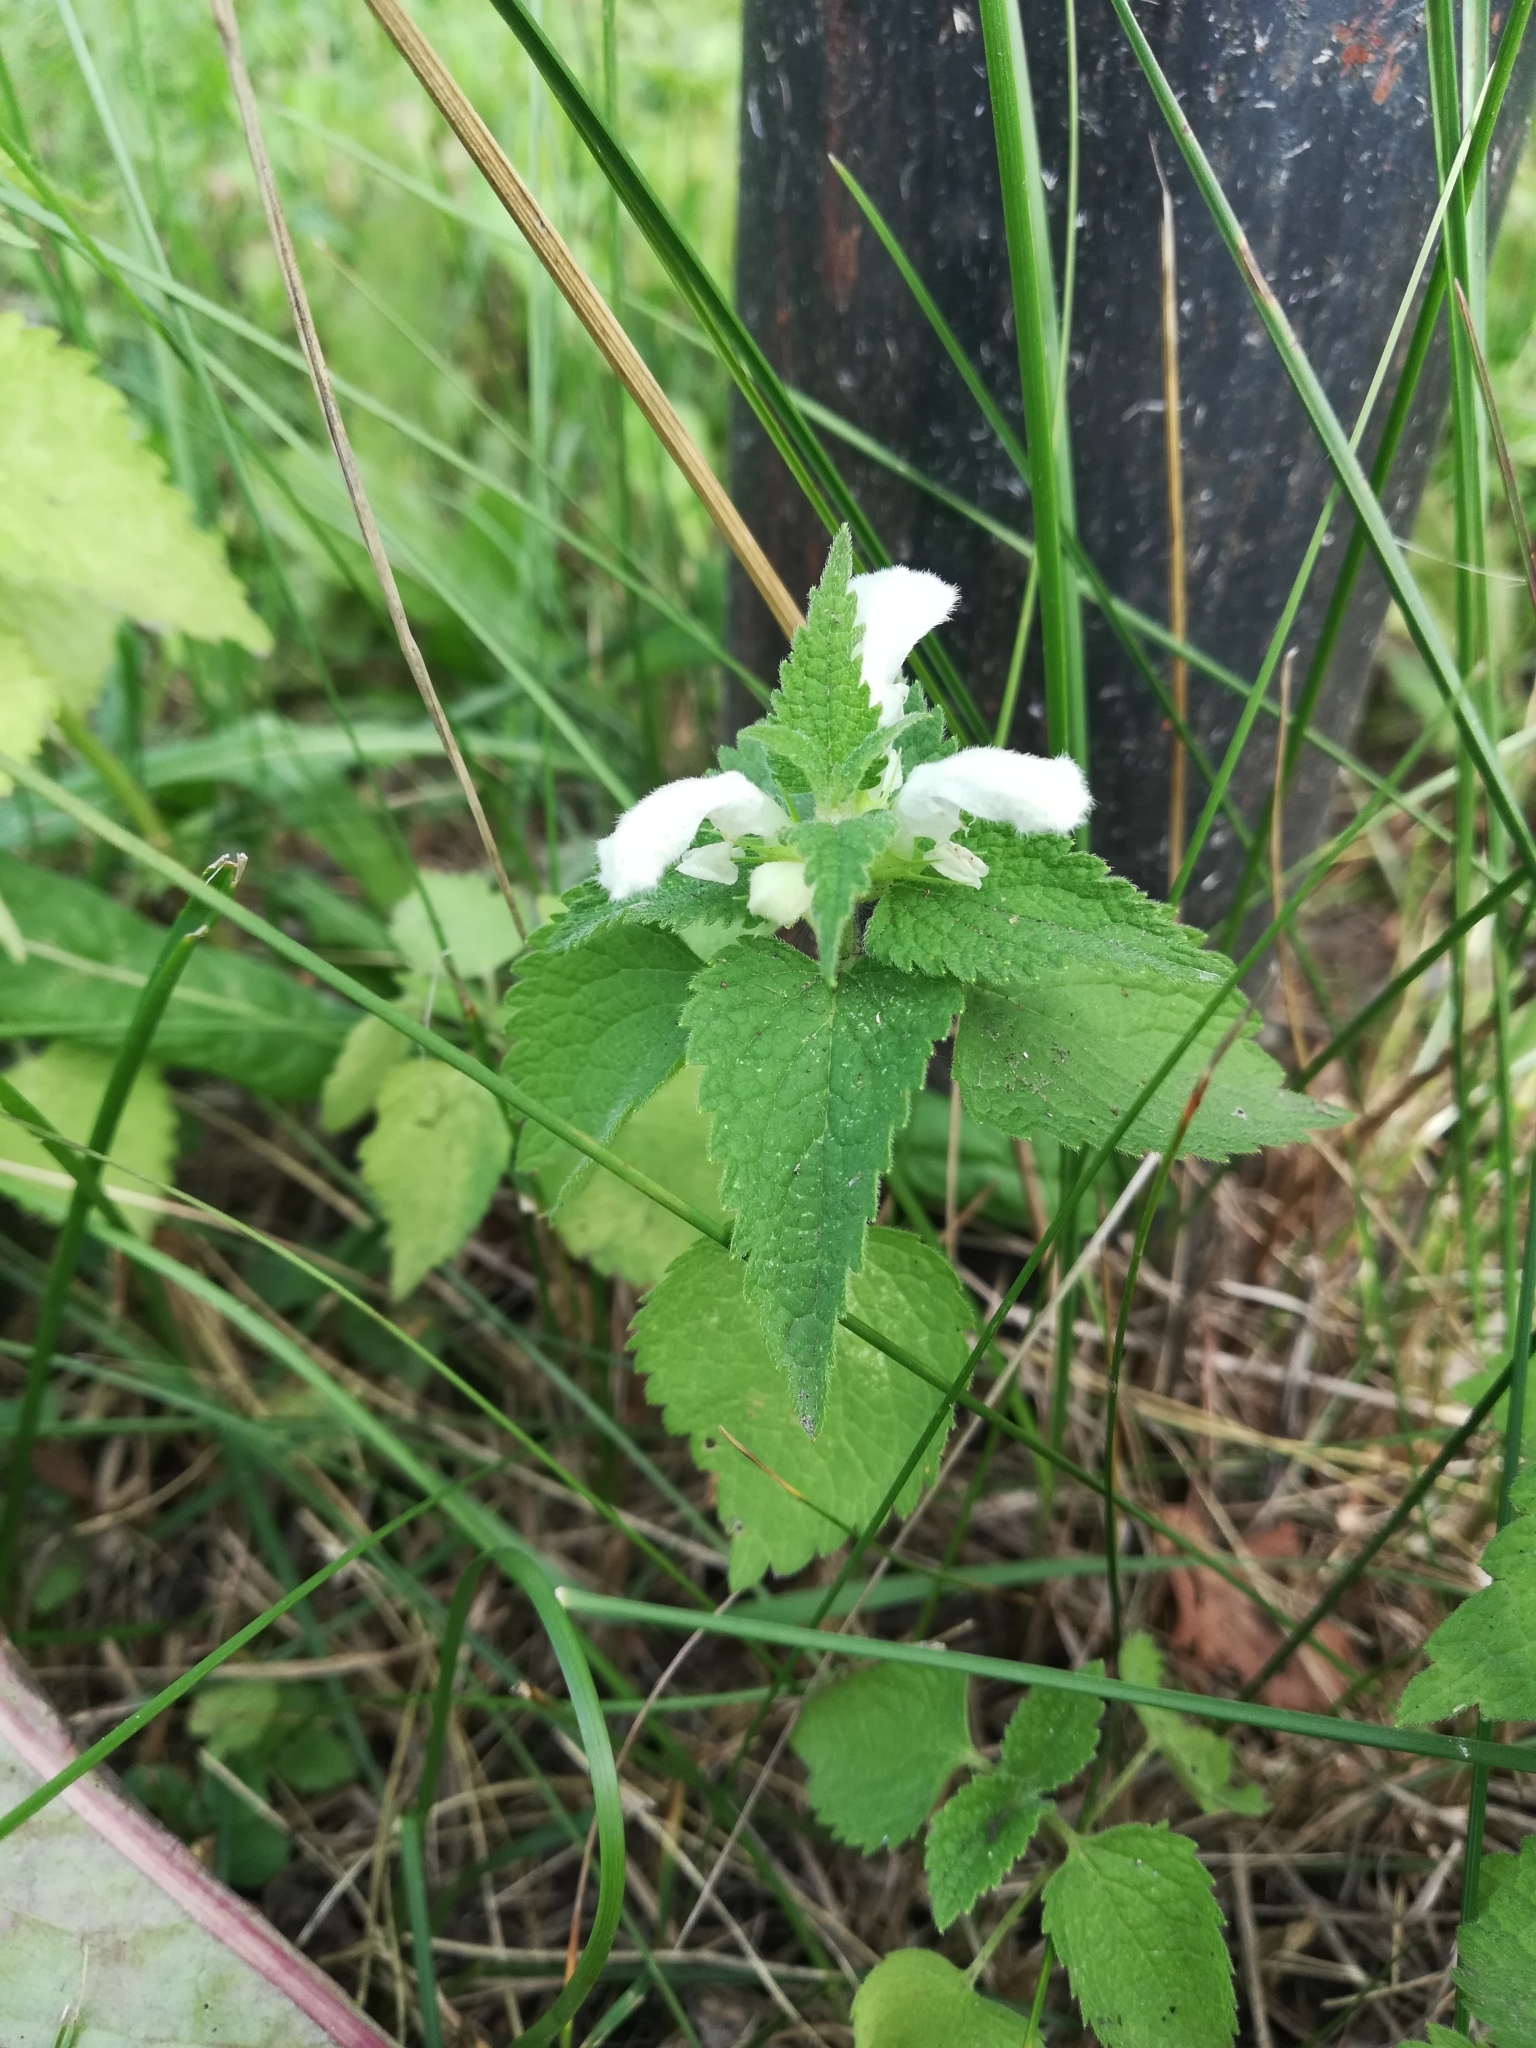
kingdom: Plantae
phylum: Tracheophyta
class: Magnoliopsida
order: Lamiales
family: Lamiaceae
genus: Lamium
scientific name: Lamium album
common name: White dead-nettle
